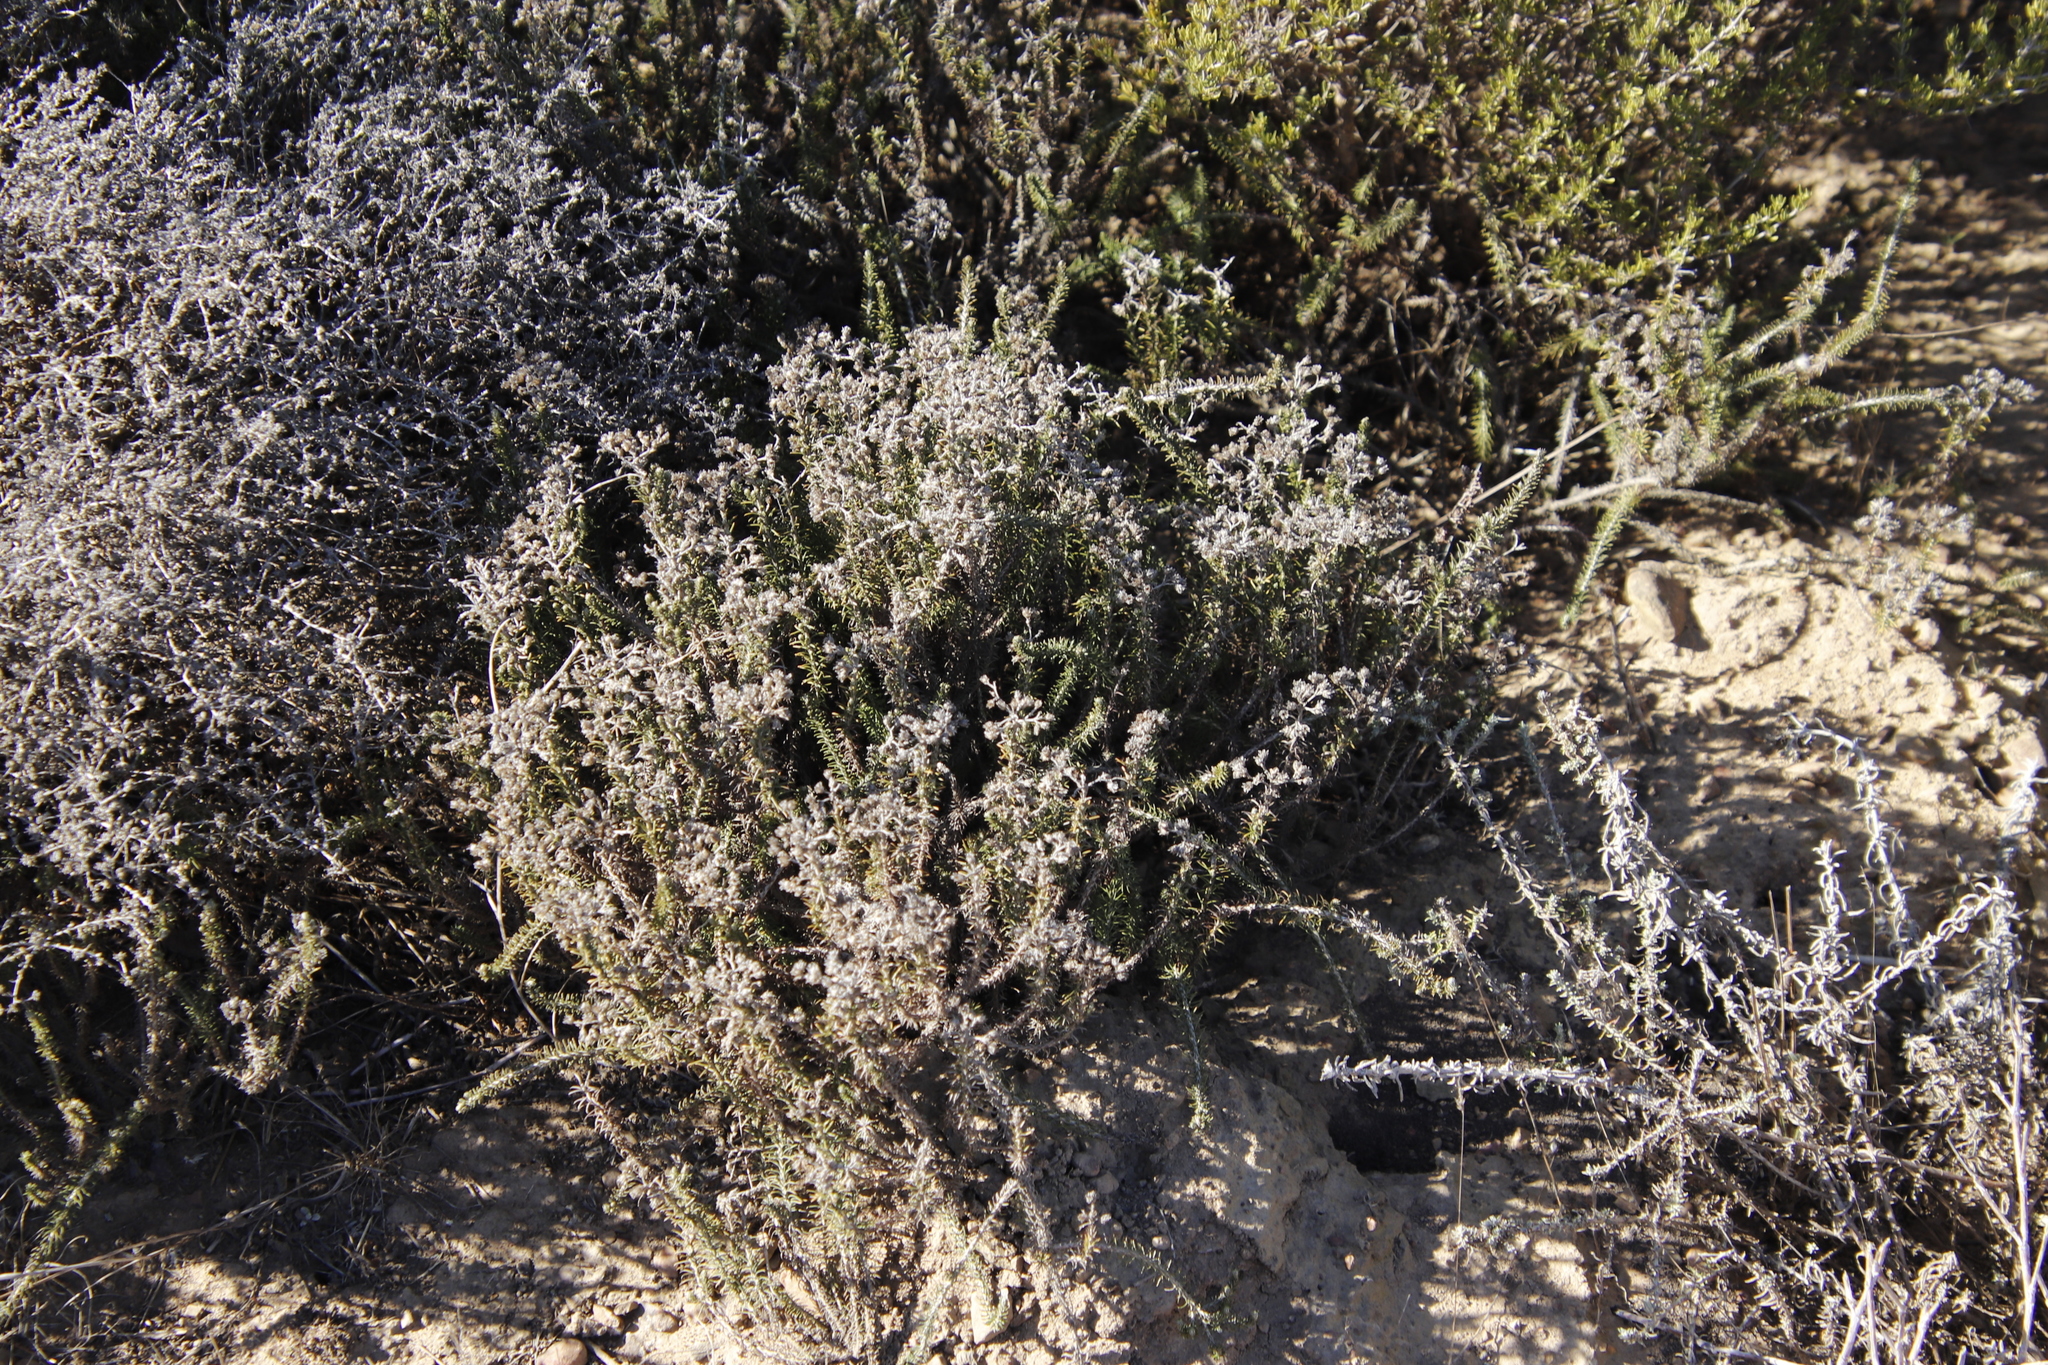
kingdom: Plantae
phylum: Tracheophyta
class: Magnoliopsida
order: Asterales
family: Asteraceae
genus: Helichrysum
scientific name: Helichrysum teretifolium
